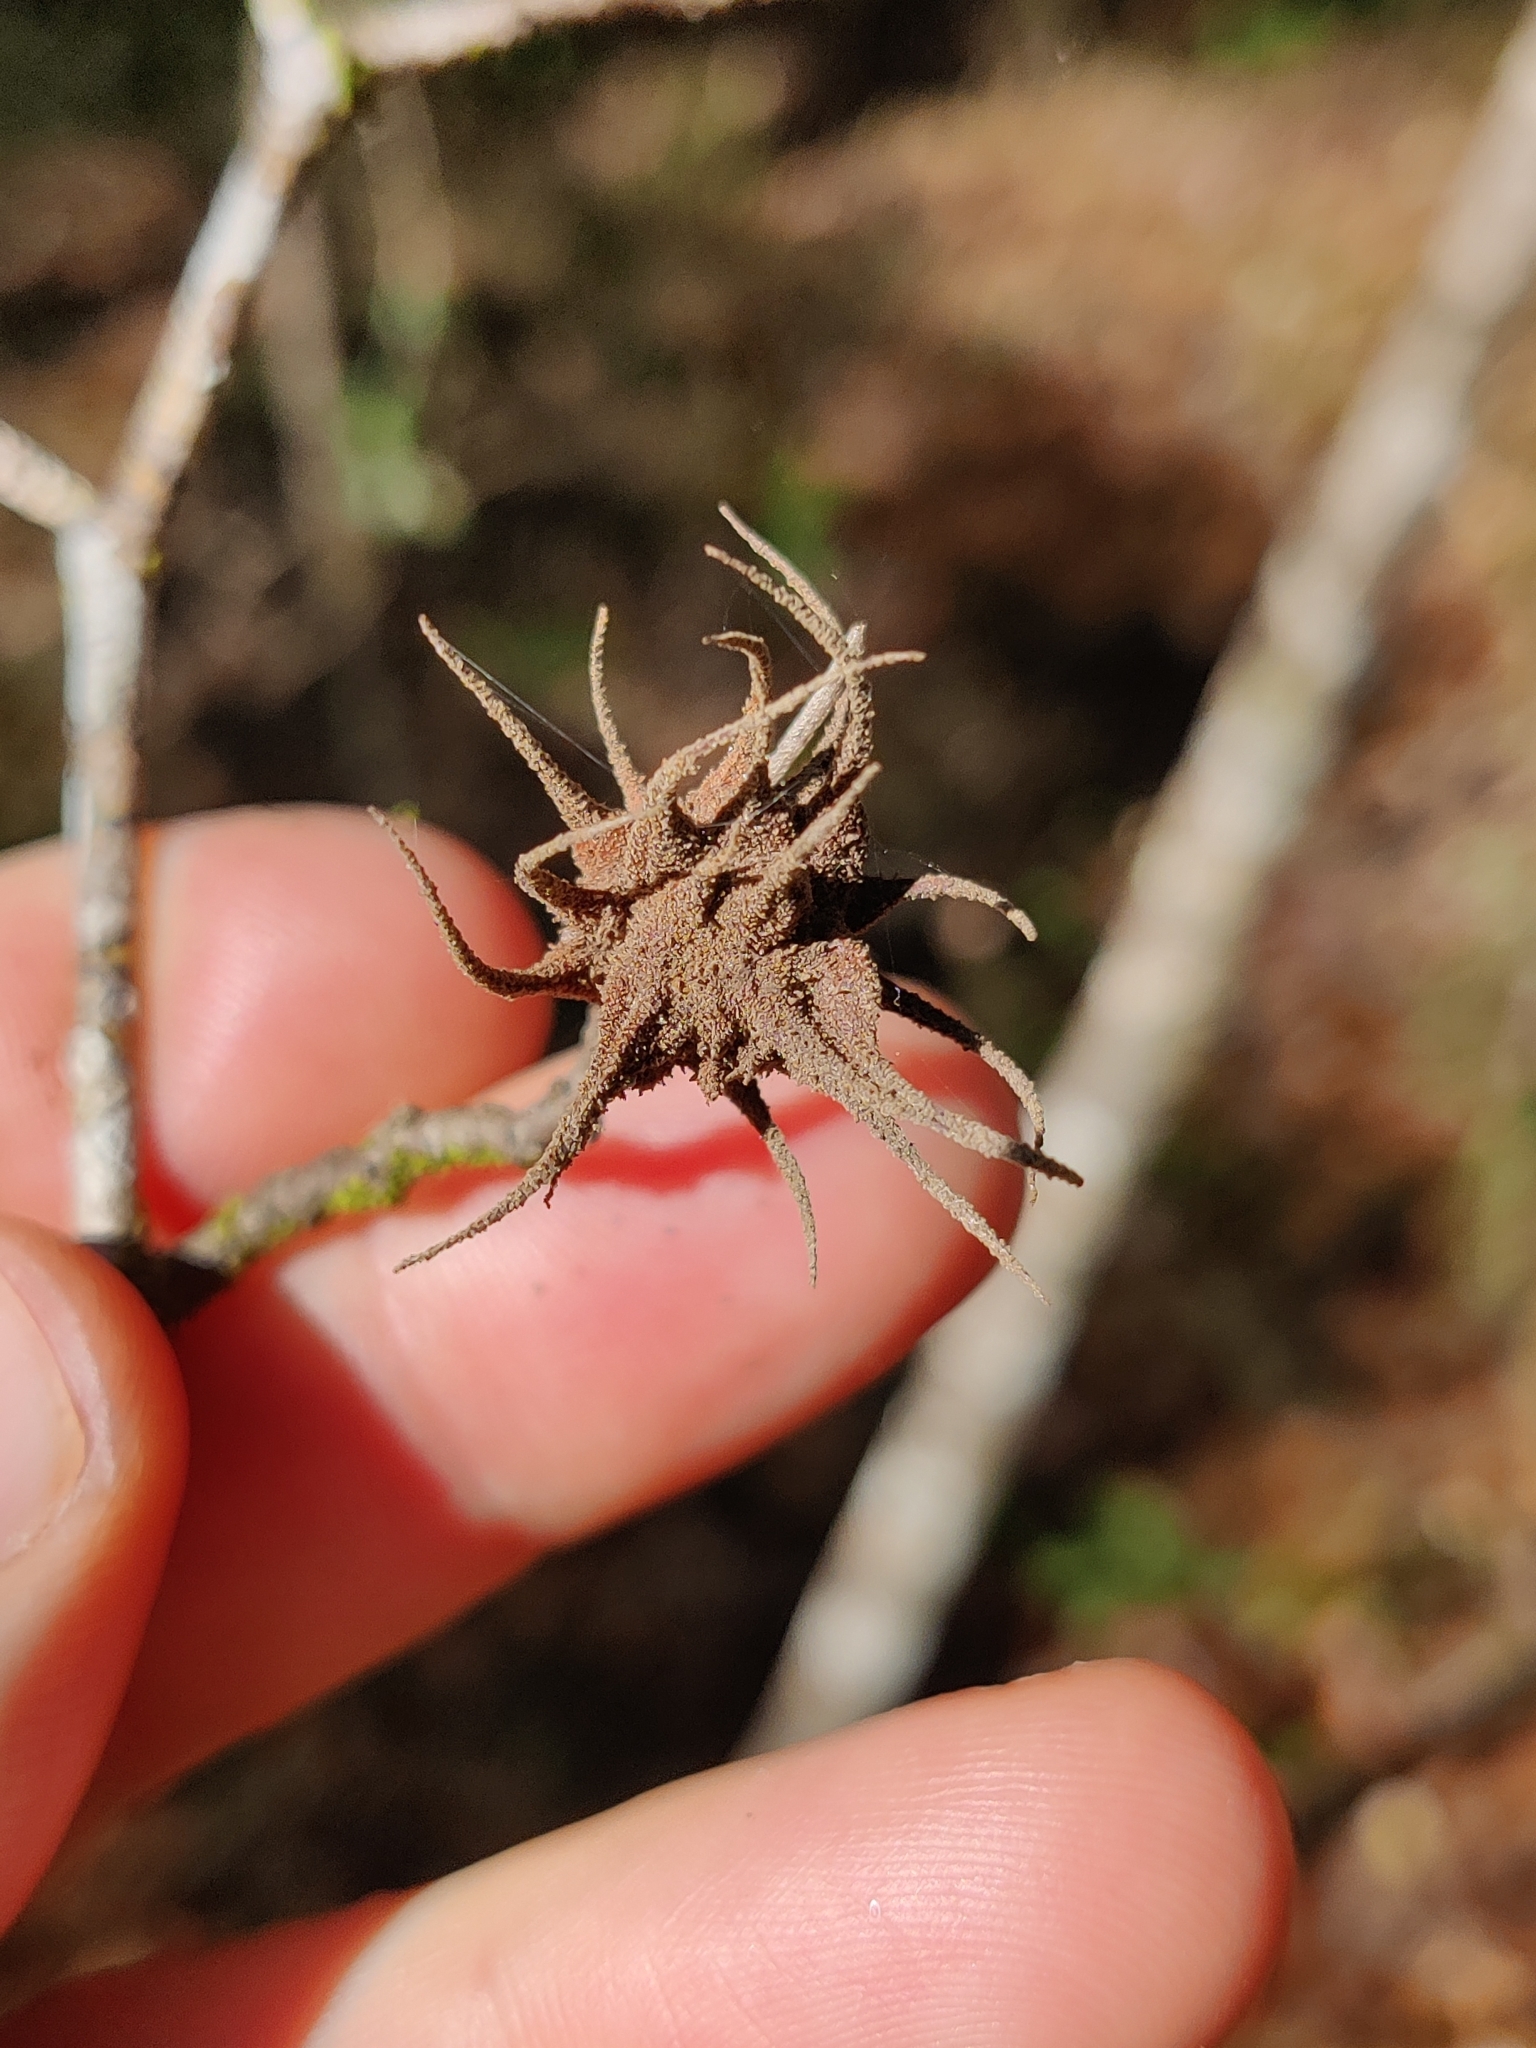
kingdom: Animalia
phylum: Arthropoda
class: Insecta
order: Hemiptera
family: Aphididae
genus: Hamamelistes
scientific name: Hamamelistes spinosus
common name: Witch hazel gall aphid
